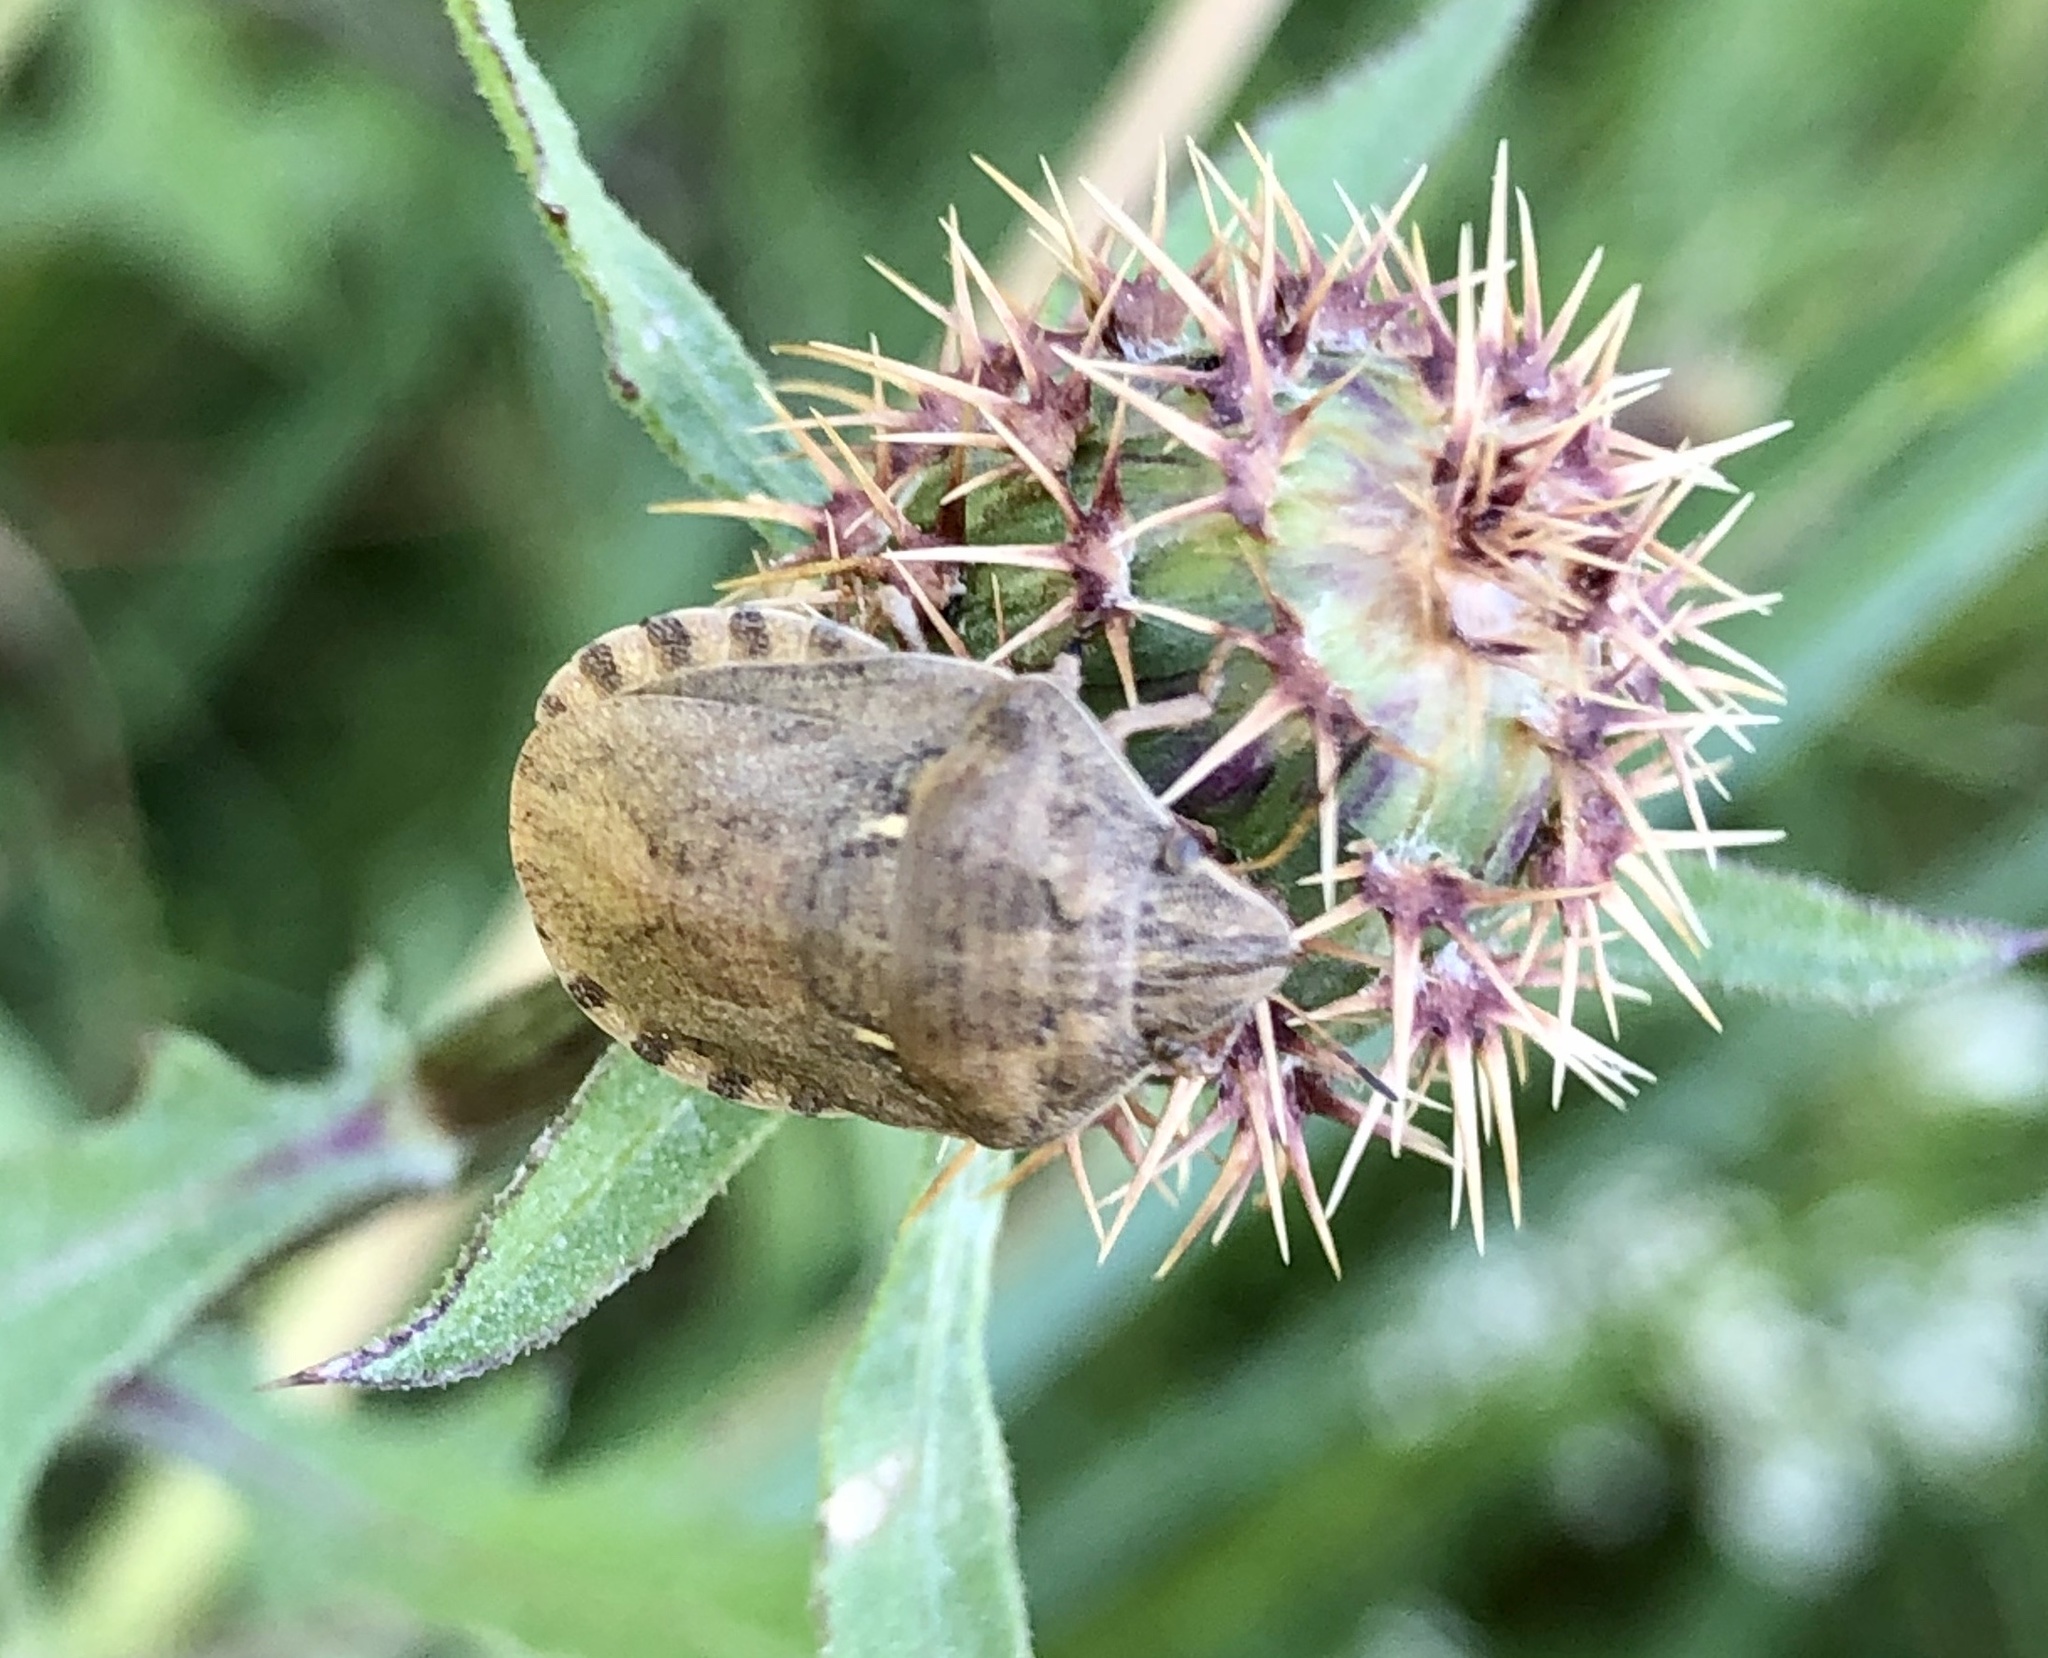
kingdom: Animalia
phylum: Arthropoda
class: Insecta
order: Hemiptera
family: Scutelleridae
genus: Eurygaster
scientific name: Eurygaster maura
